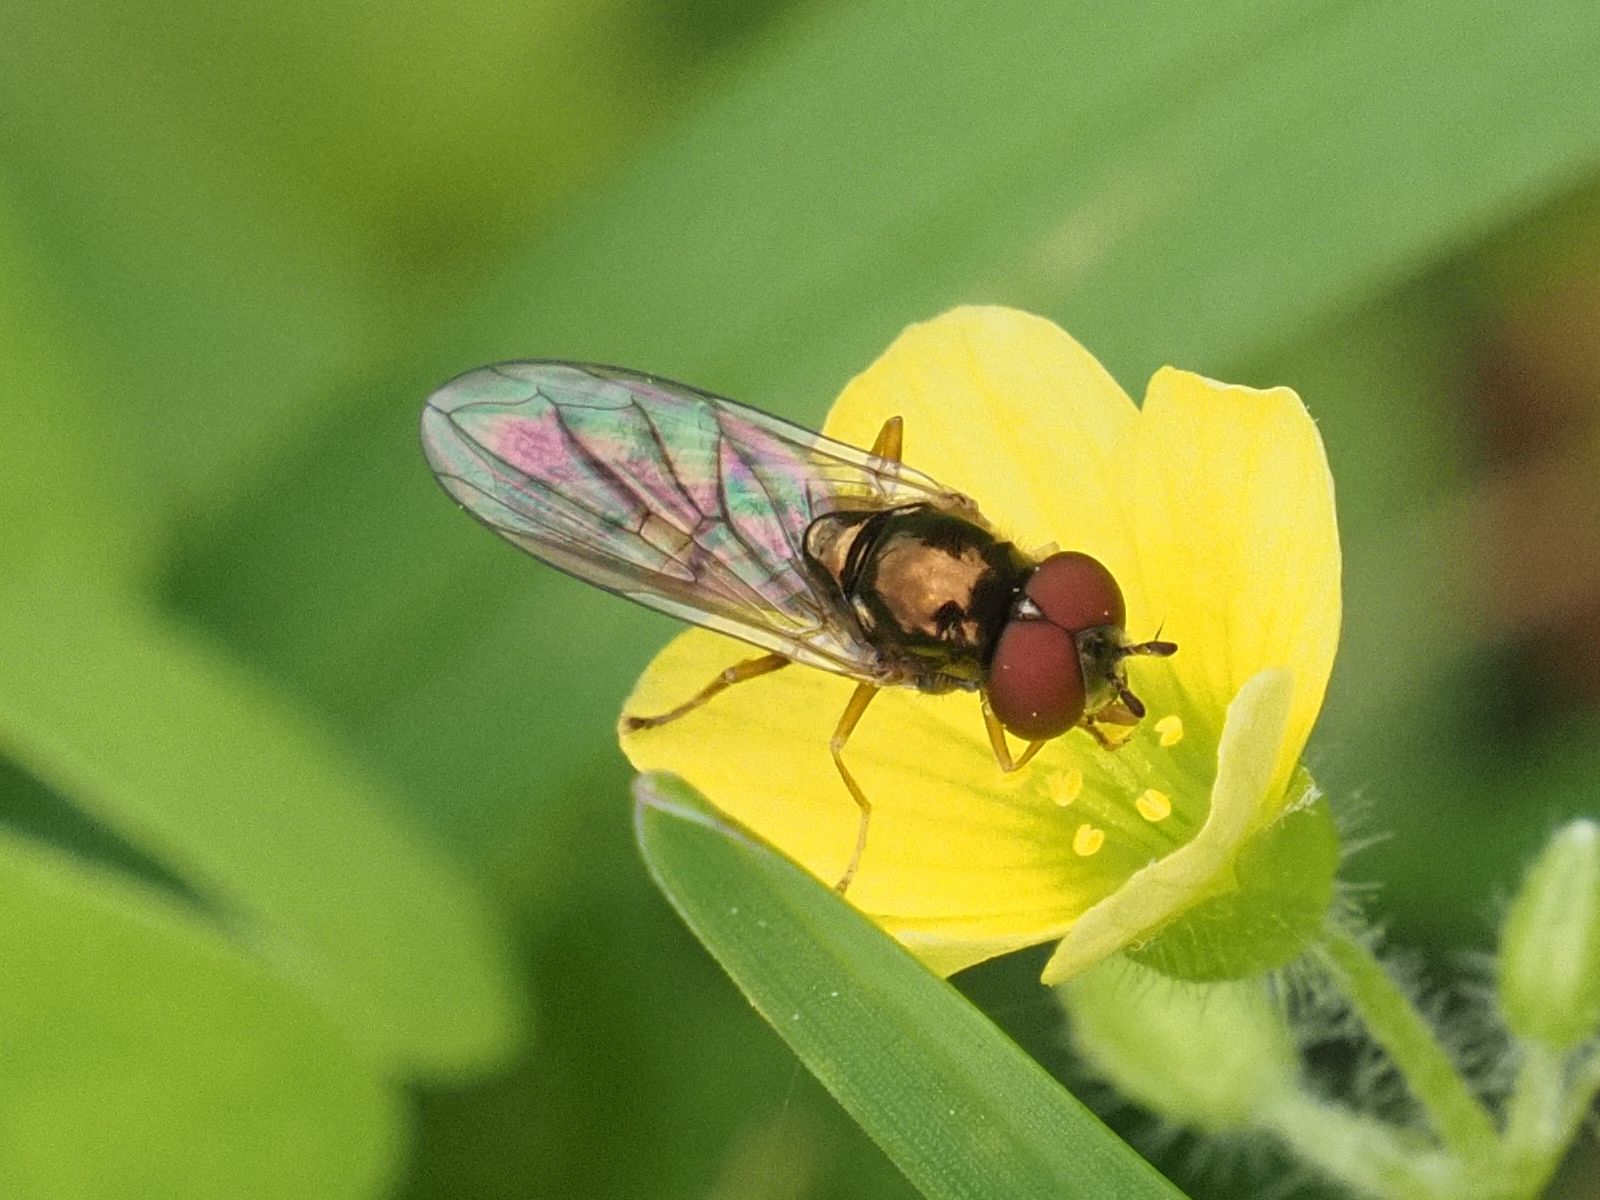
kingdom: Animalia
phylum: Arthropoda
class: Insecta
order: Diptera
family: Syrphidae
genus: Melanostoma
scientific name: Melanostoma mellina
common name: Hover fly
